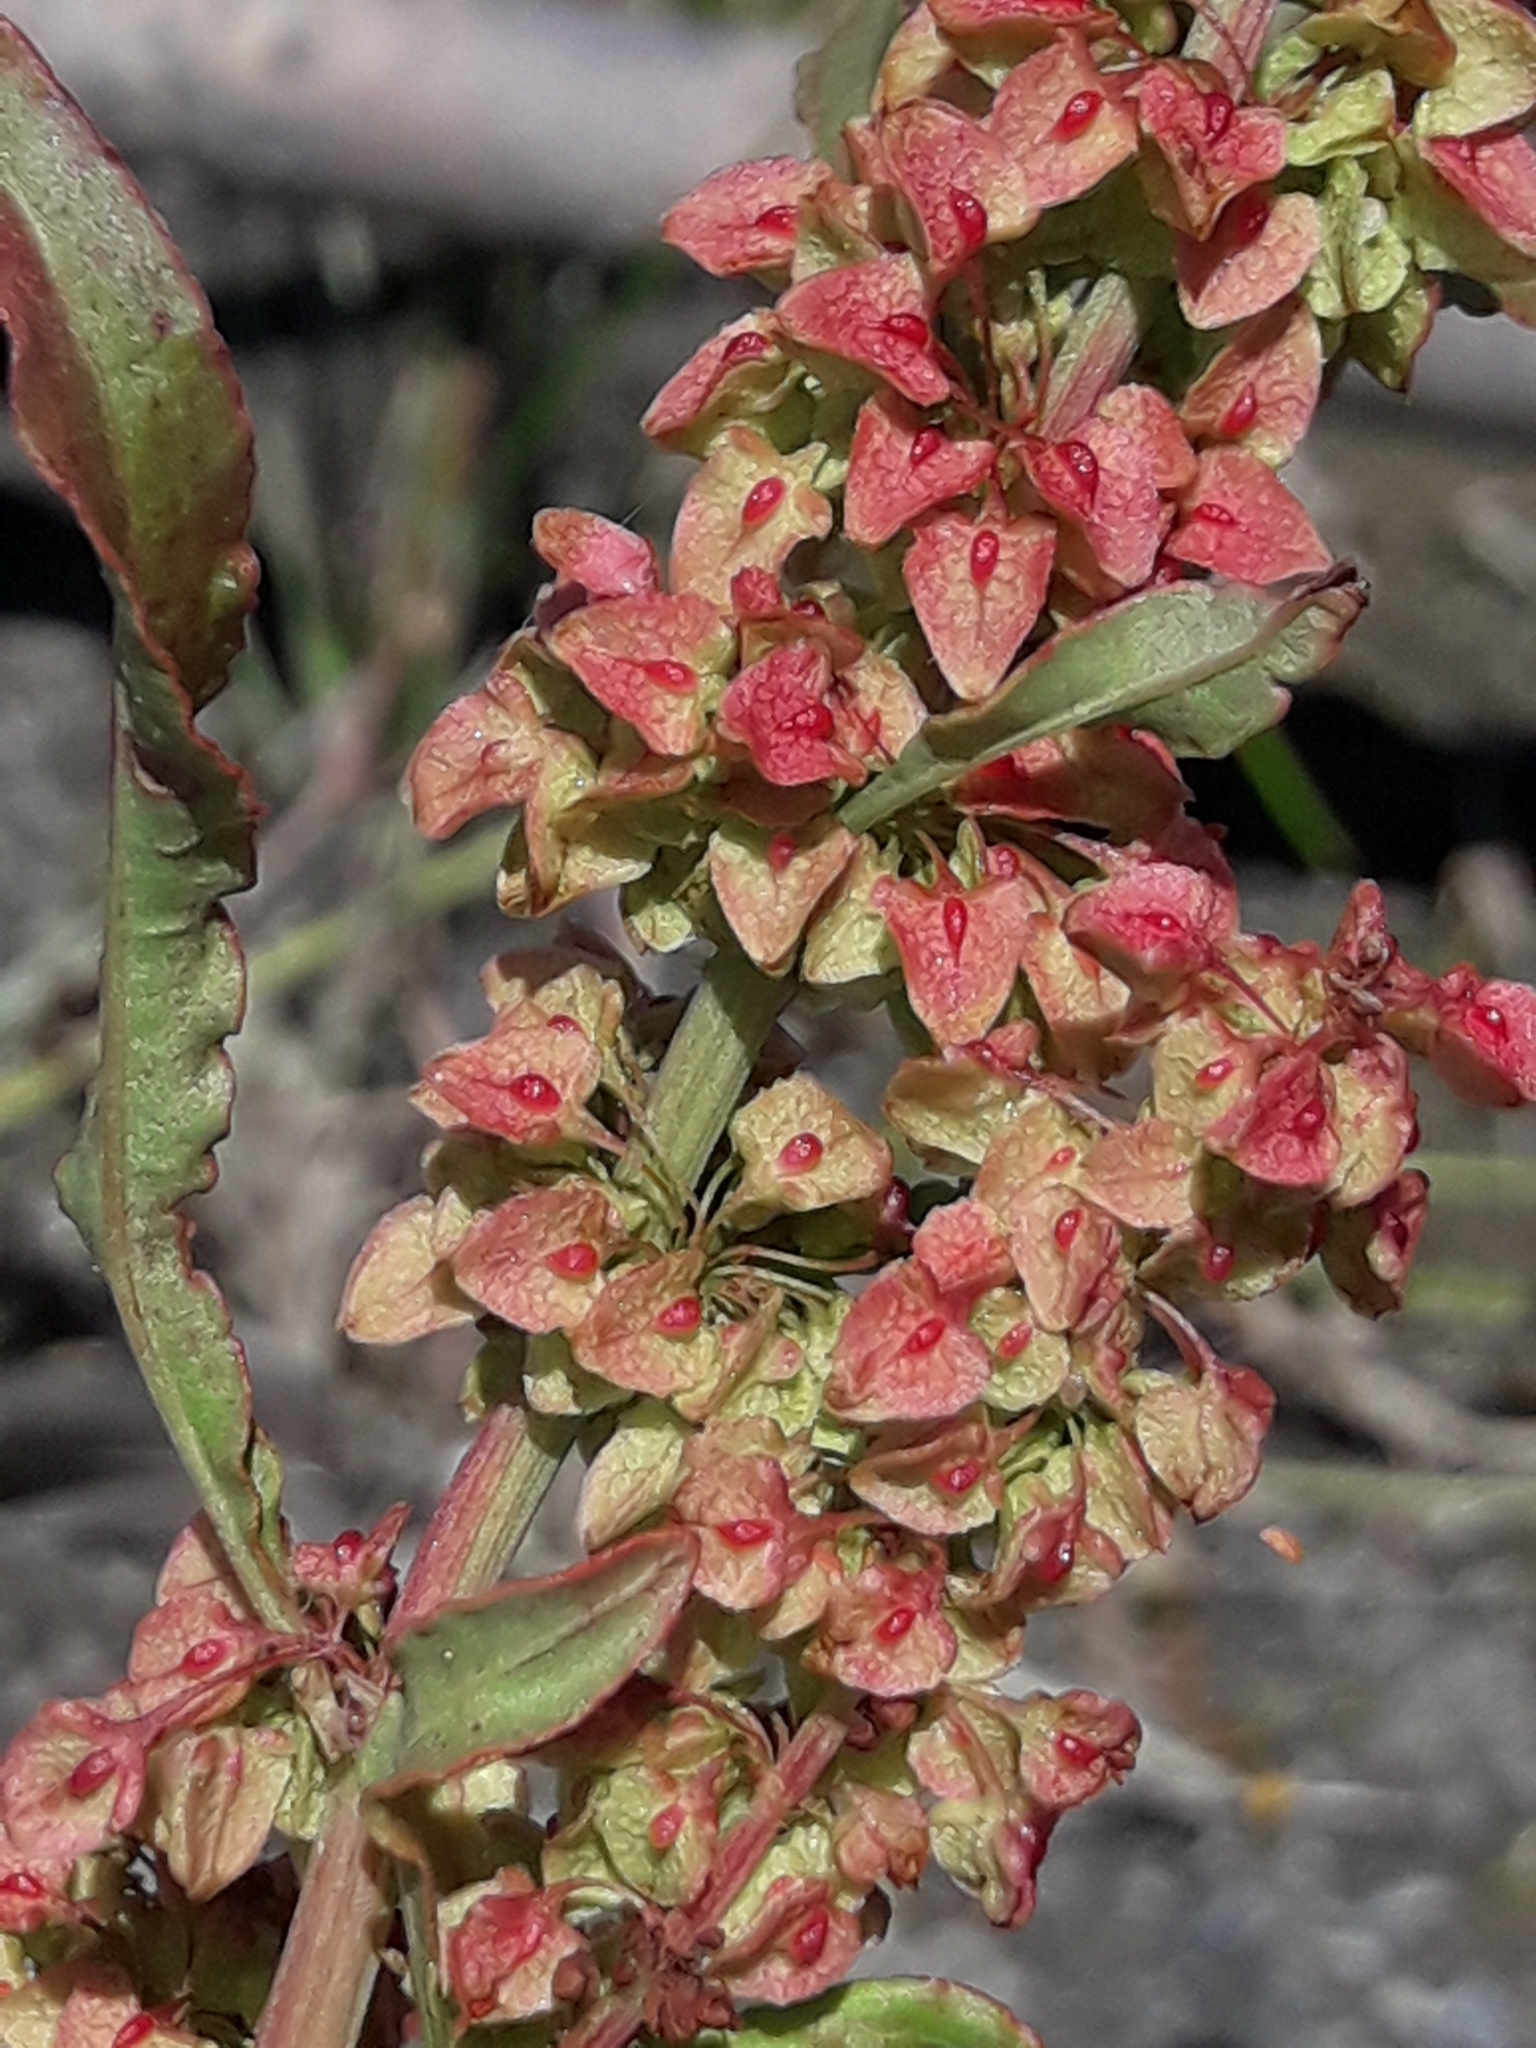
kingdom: Plantae
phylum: Tracheophyta
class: Magnoliopsida
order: Caryophyllales
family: Polygonaceae
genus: Rumex
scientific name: Rumex crispus
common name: Curled dock
